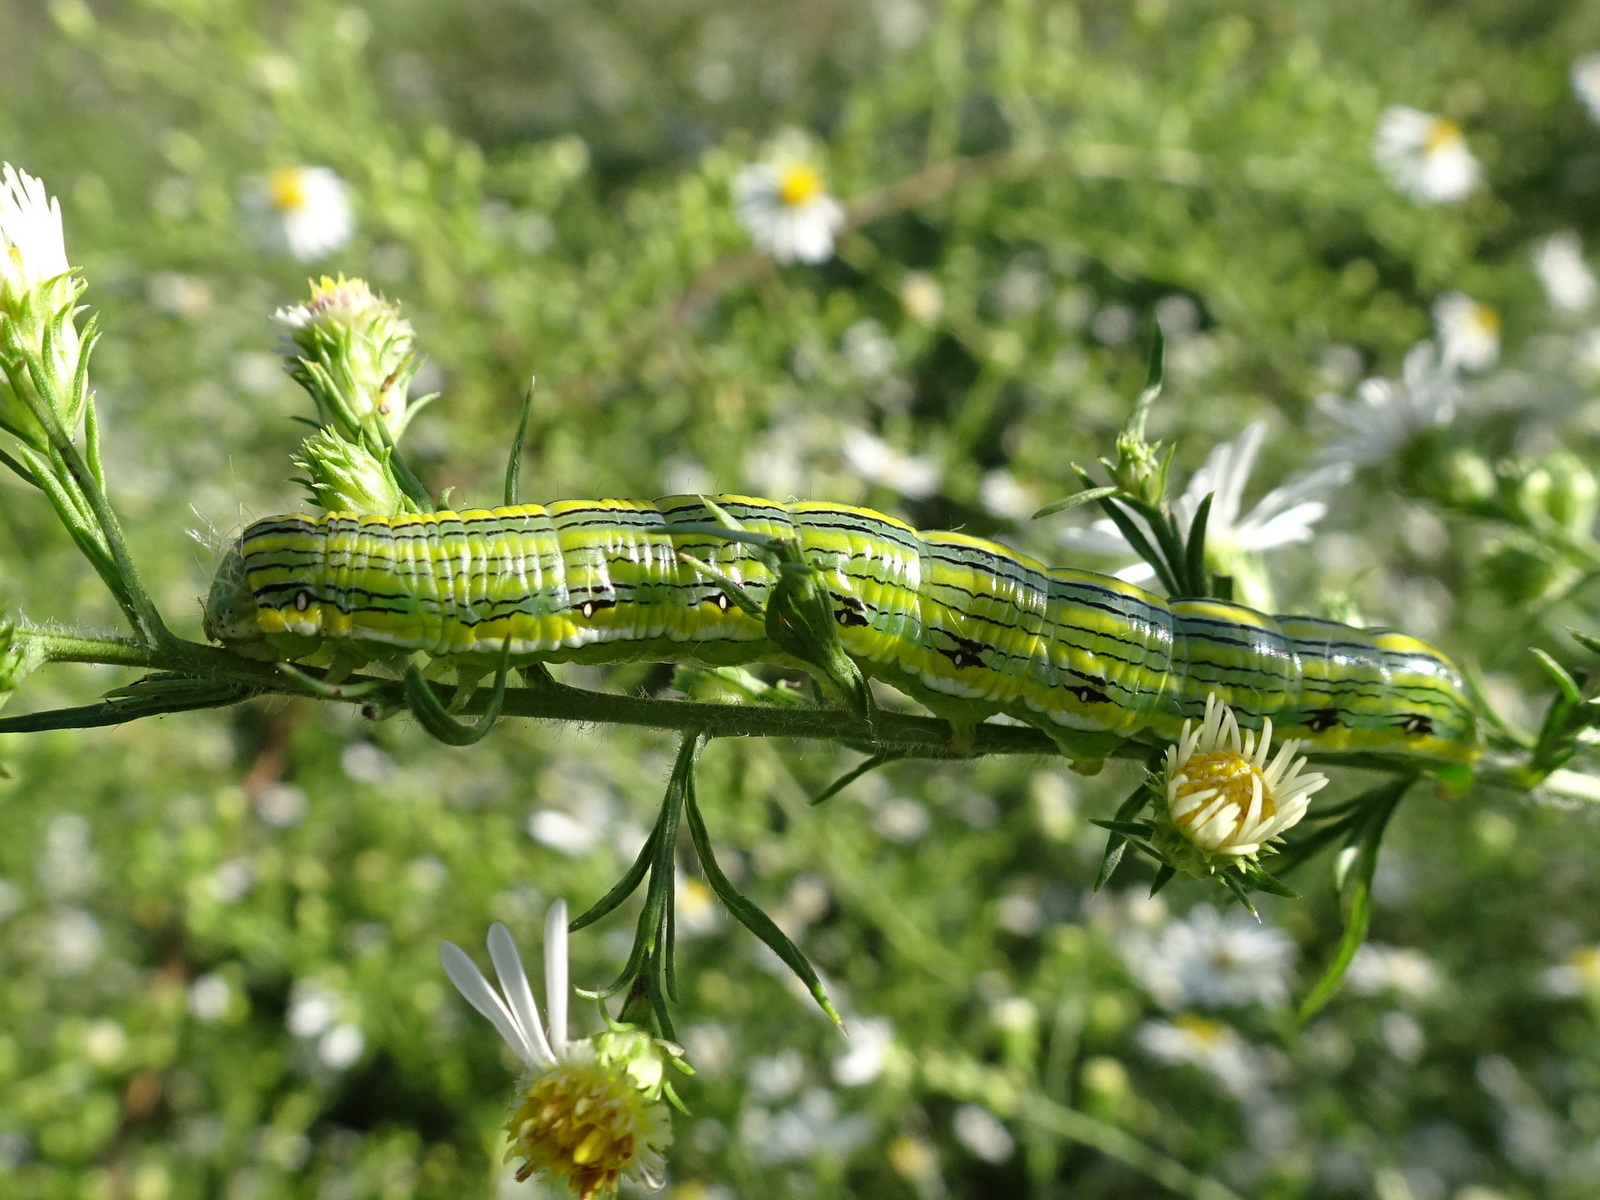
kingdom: Animalia
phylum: Arthropoda
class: Insecta
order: Lepidoptera
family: Noctuidae
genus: Cucullia
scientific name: Cucullia asteroides
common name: Asteroid moth
